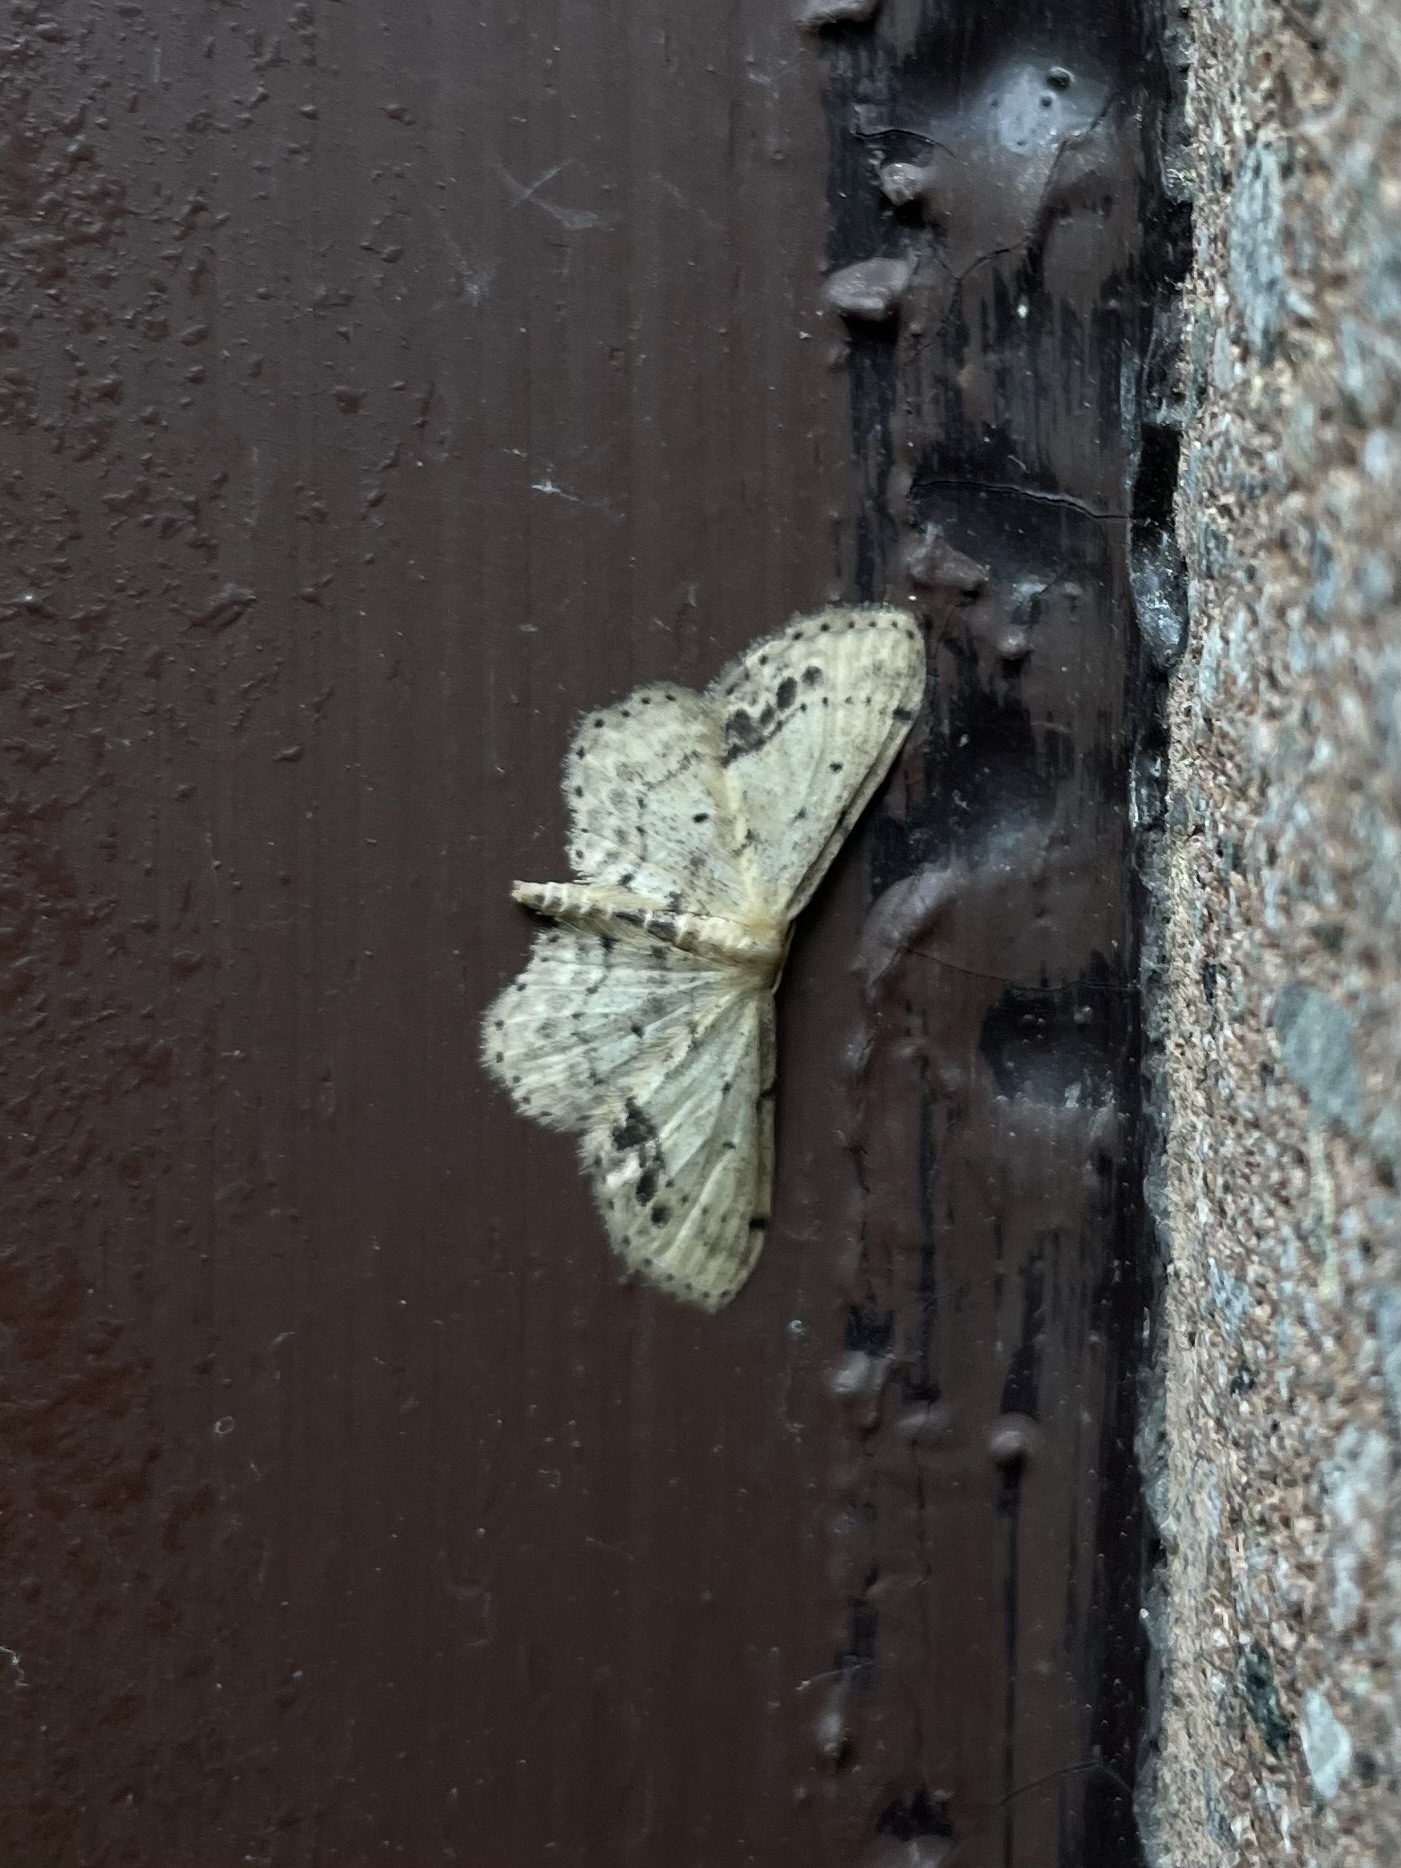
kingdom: Animalia
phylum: Arthropoda
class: Insecta
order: Lepidoptera
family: Geometridae
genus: Idaea
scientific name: Idaea dimidiata
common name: Single-dotted wave
